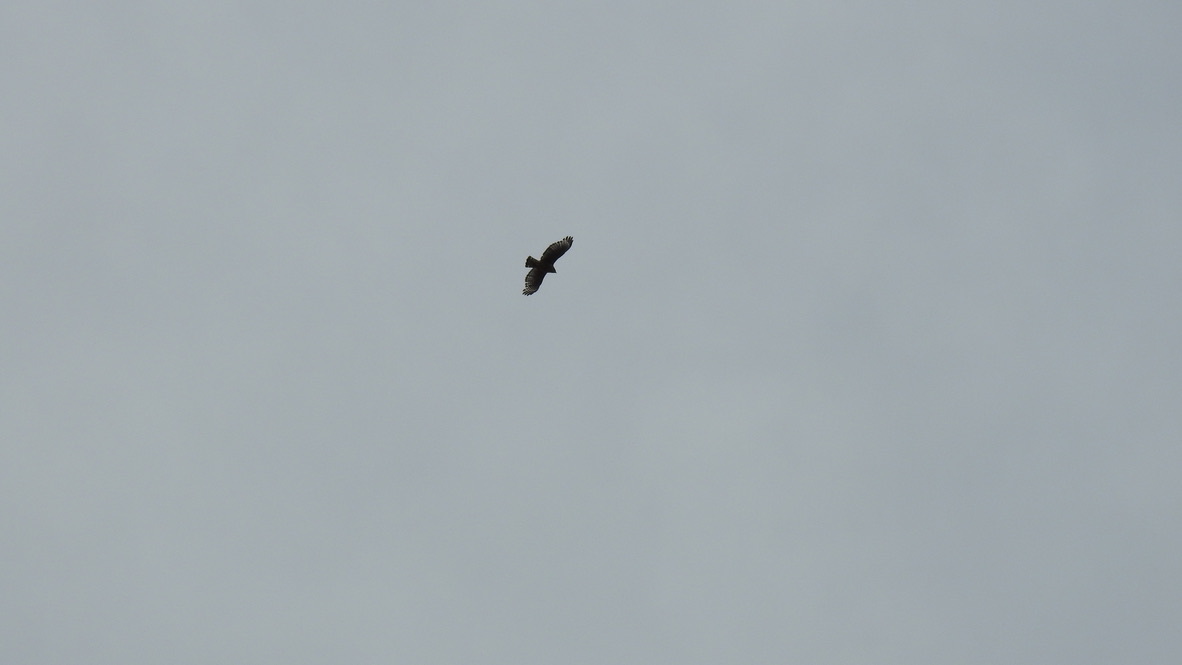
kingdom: Animalia
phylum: Chordata
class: Aves
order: Accipitriformes
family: Accipitridae
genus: Buteo
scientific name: Buteo lineatus
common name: Red-shouldered hawk
